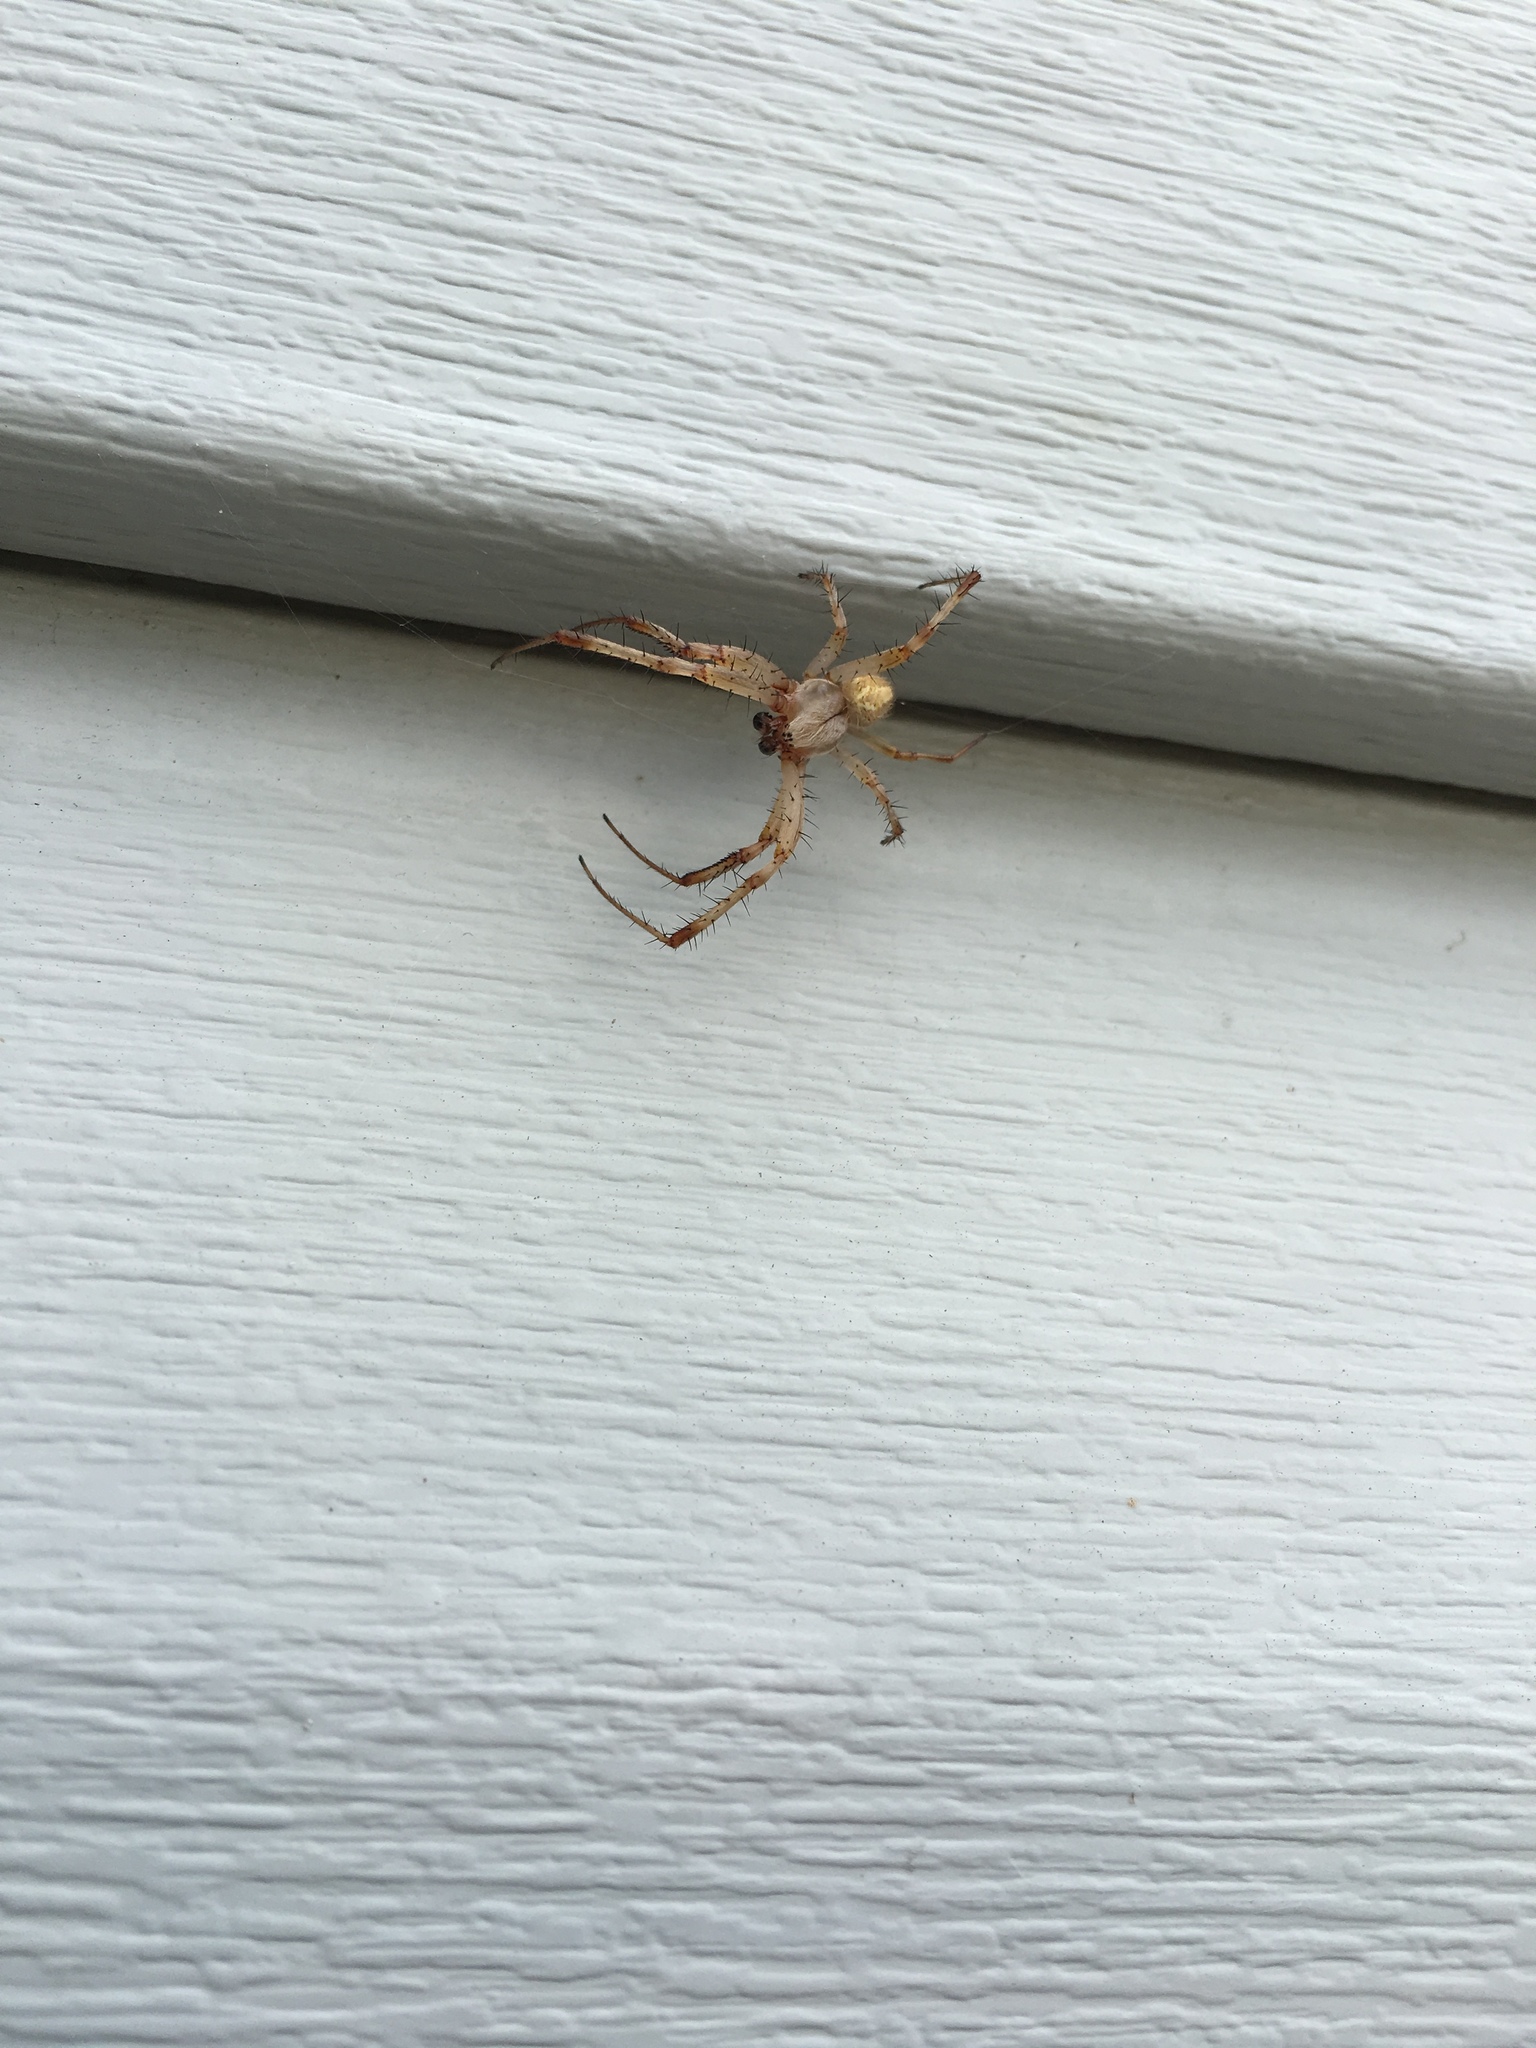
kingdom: Animalia
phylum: Arthropoda
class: Arachnida
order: Araneae
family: Araneidae
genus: Neoscona
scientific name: Neoscona oaxacensis
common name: Orb weavers
